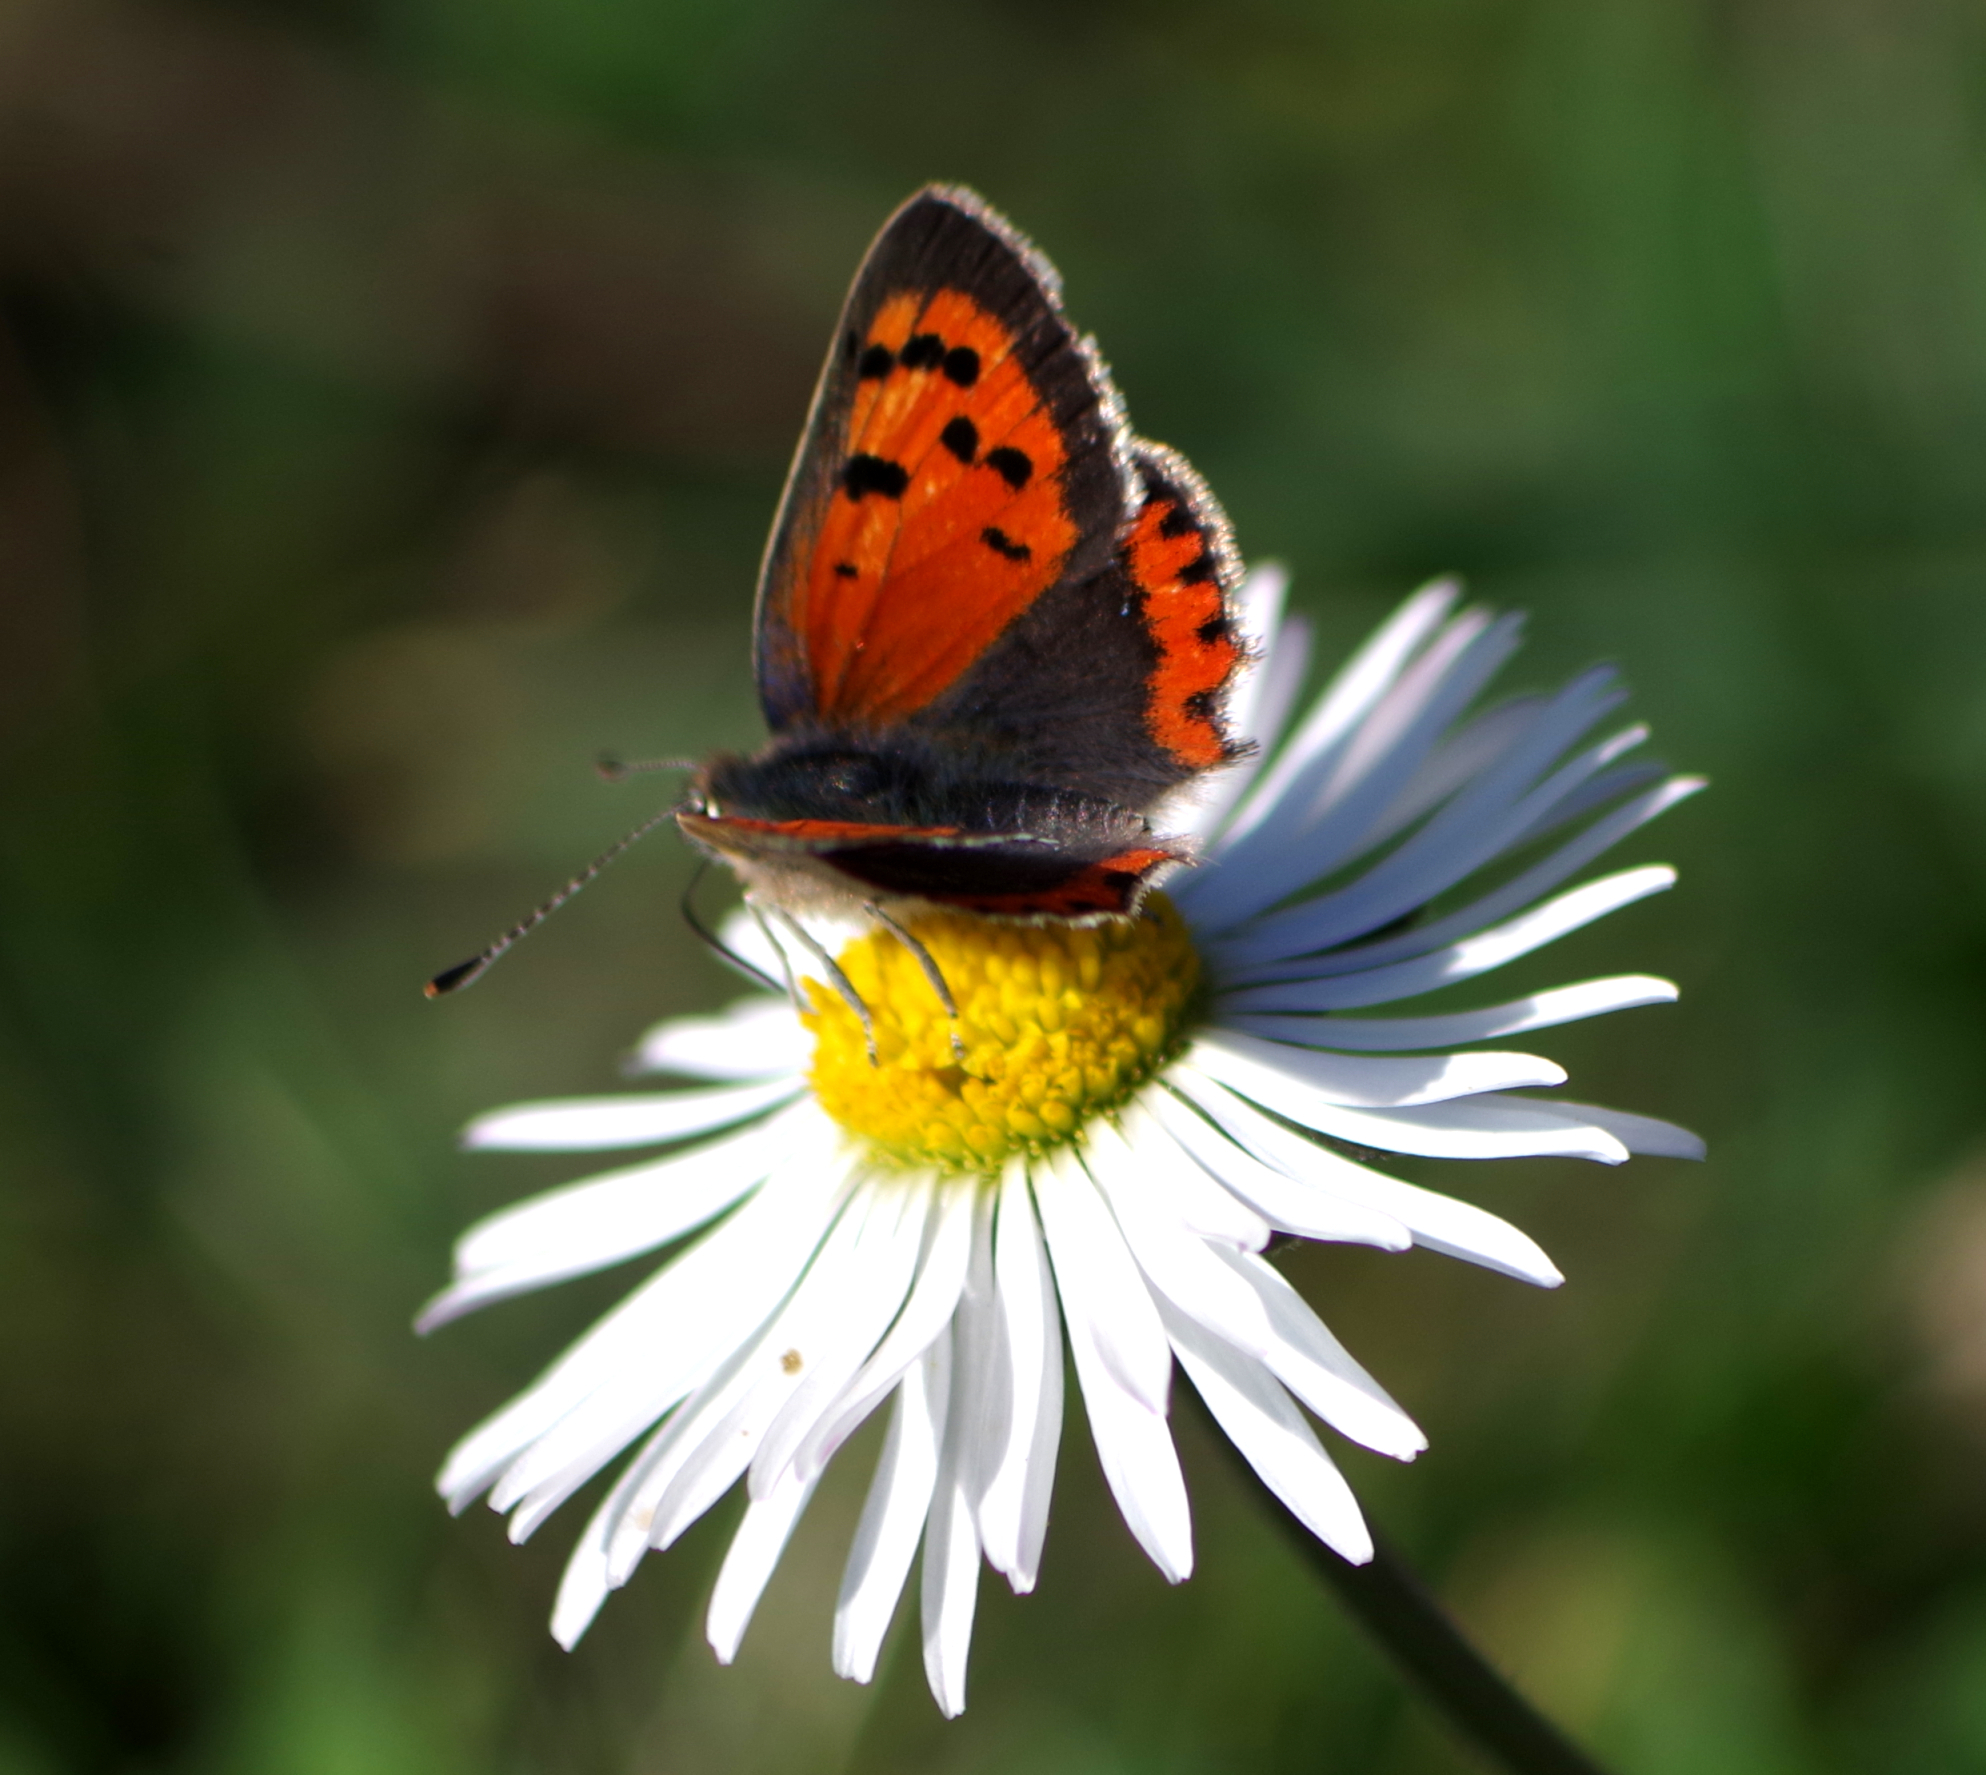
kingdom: Animalia
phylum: Arthropoda
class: Insecta
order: Lepidoptera
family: Lycaenidae
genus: Lycaena
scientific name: Lycaena phlaeas
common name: Small copper
